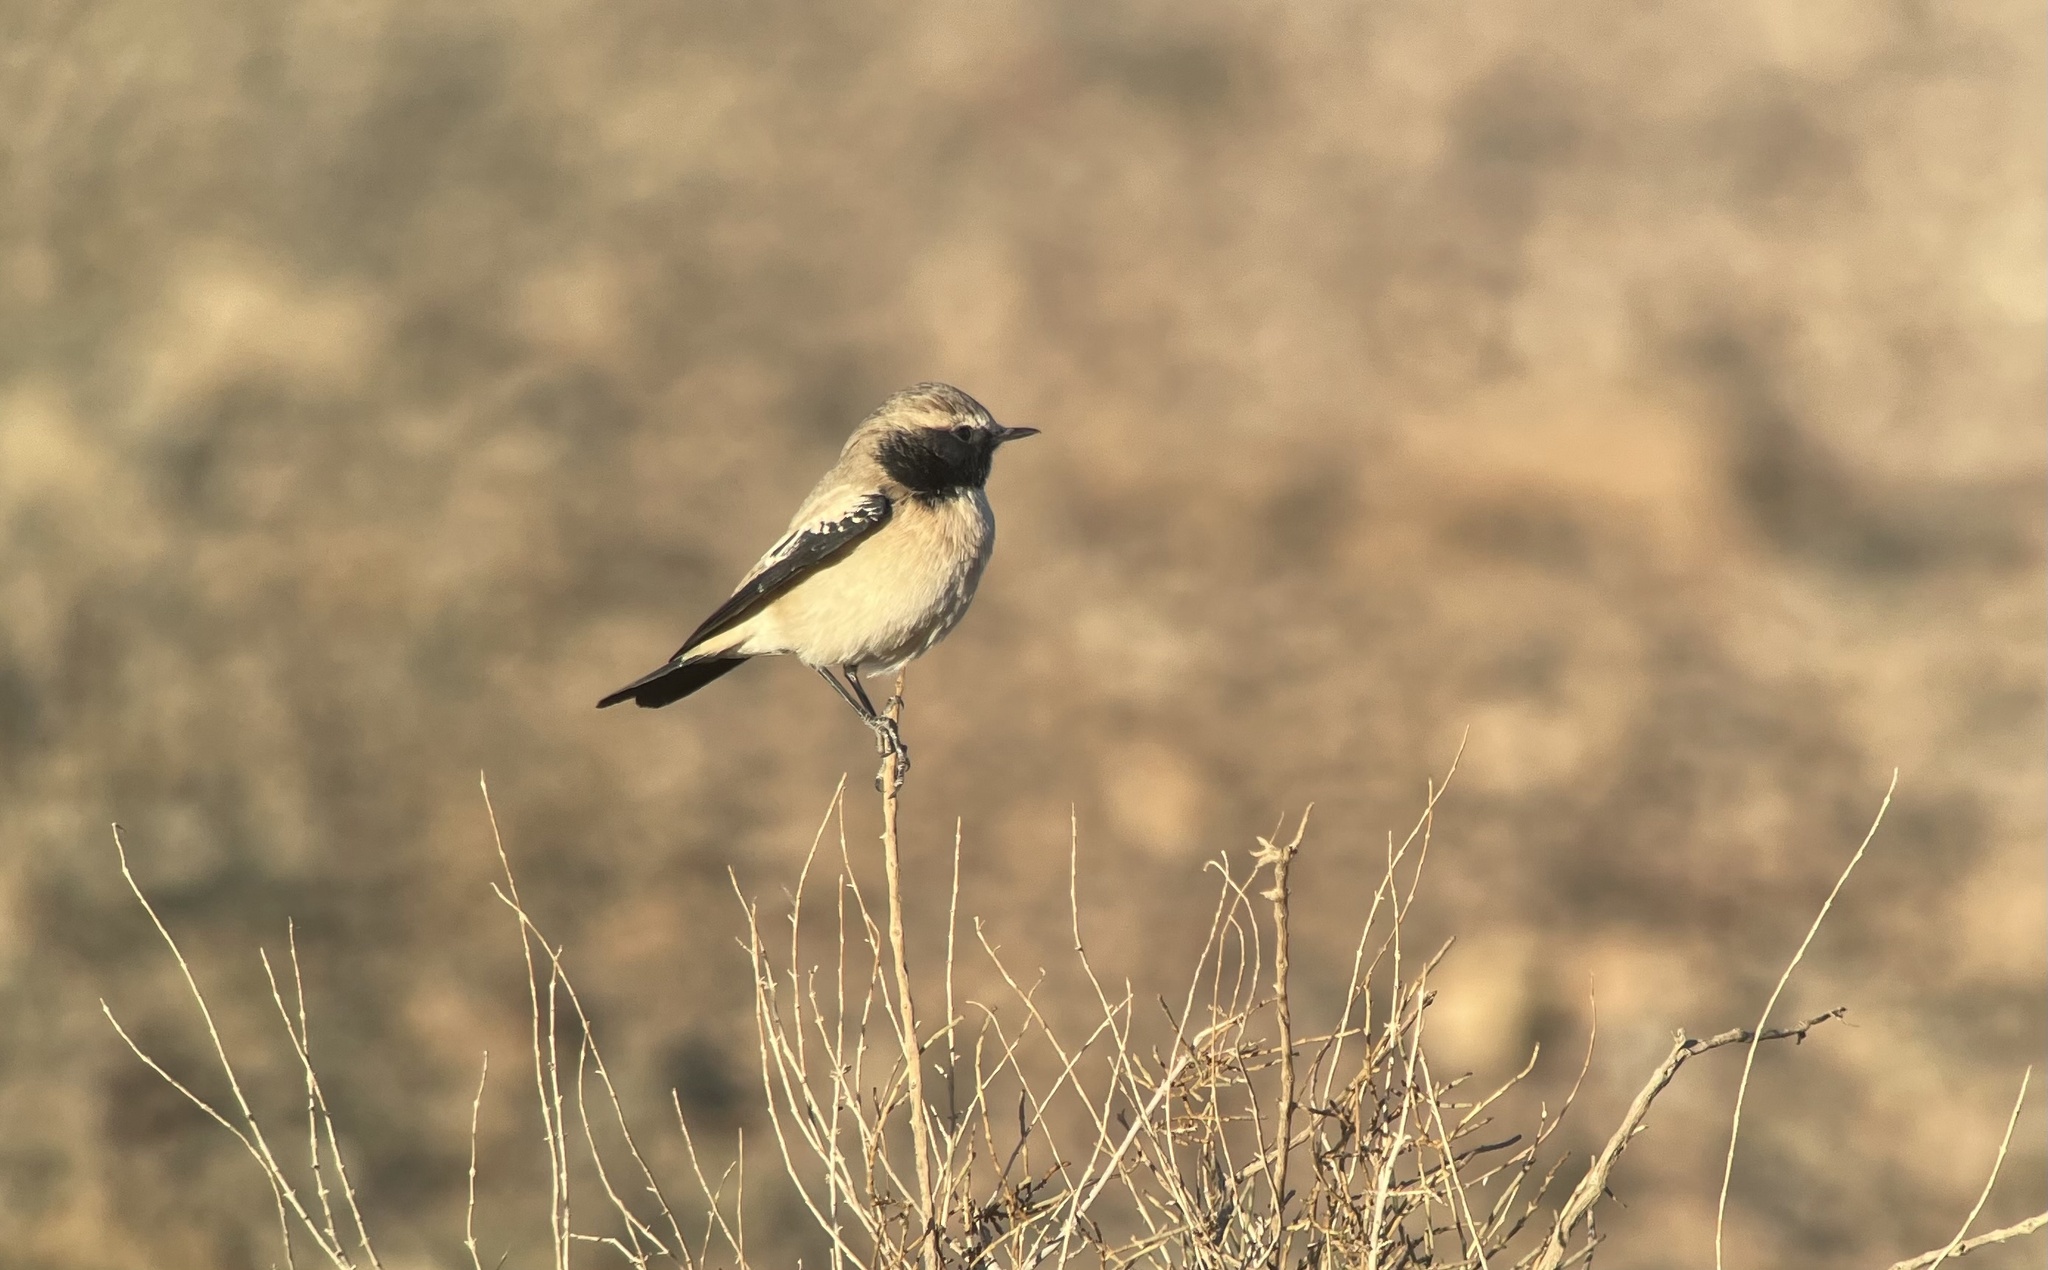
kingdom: Animalia
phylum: Chordata
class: Aves
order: Passeriformes
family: Muscicapidae
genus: Oenanthe
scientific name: Oenanthe deserti
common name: Desert wheatear
